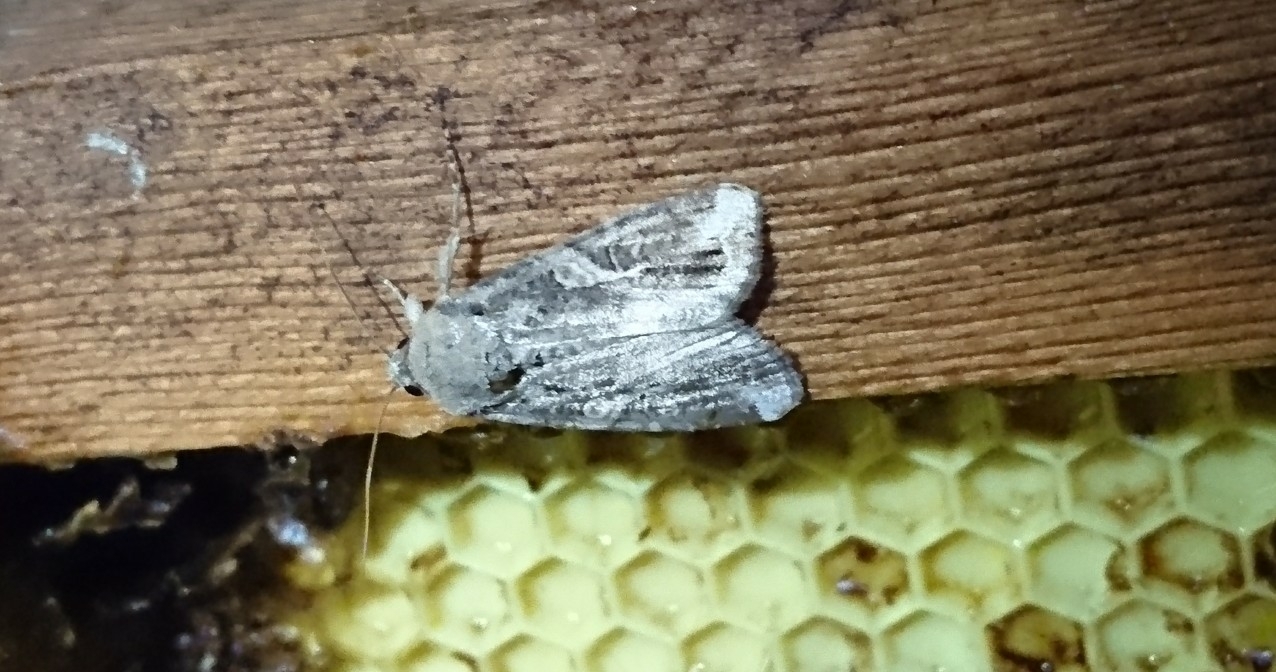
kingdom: Animalia
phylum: Arthropoda
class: Insecta
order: Lepidoptera
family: Noctuidae
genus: Spodoptera
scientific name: Spodoptera frugiperda
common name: Fall armyworm
